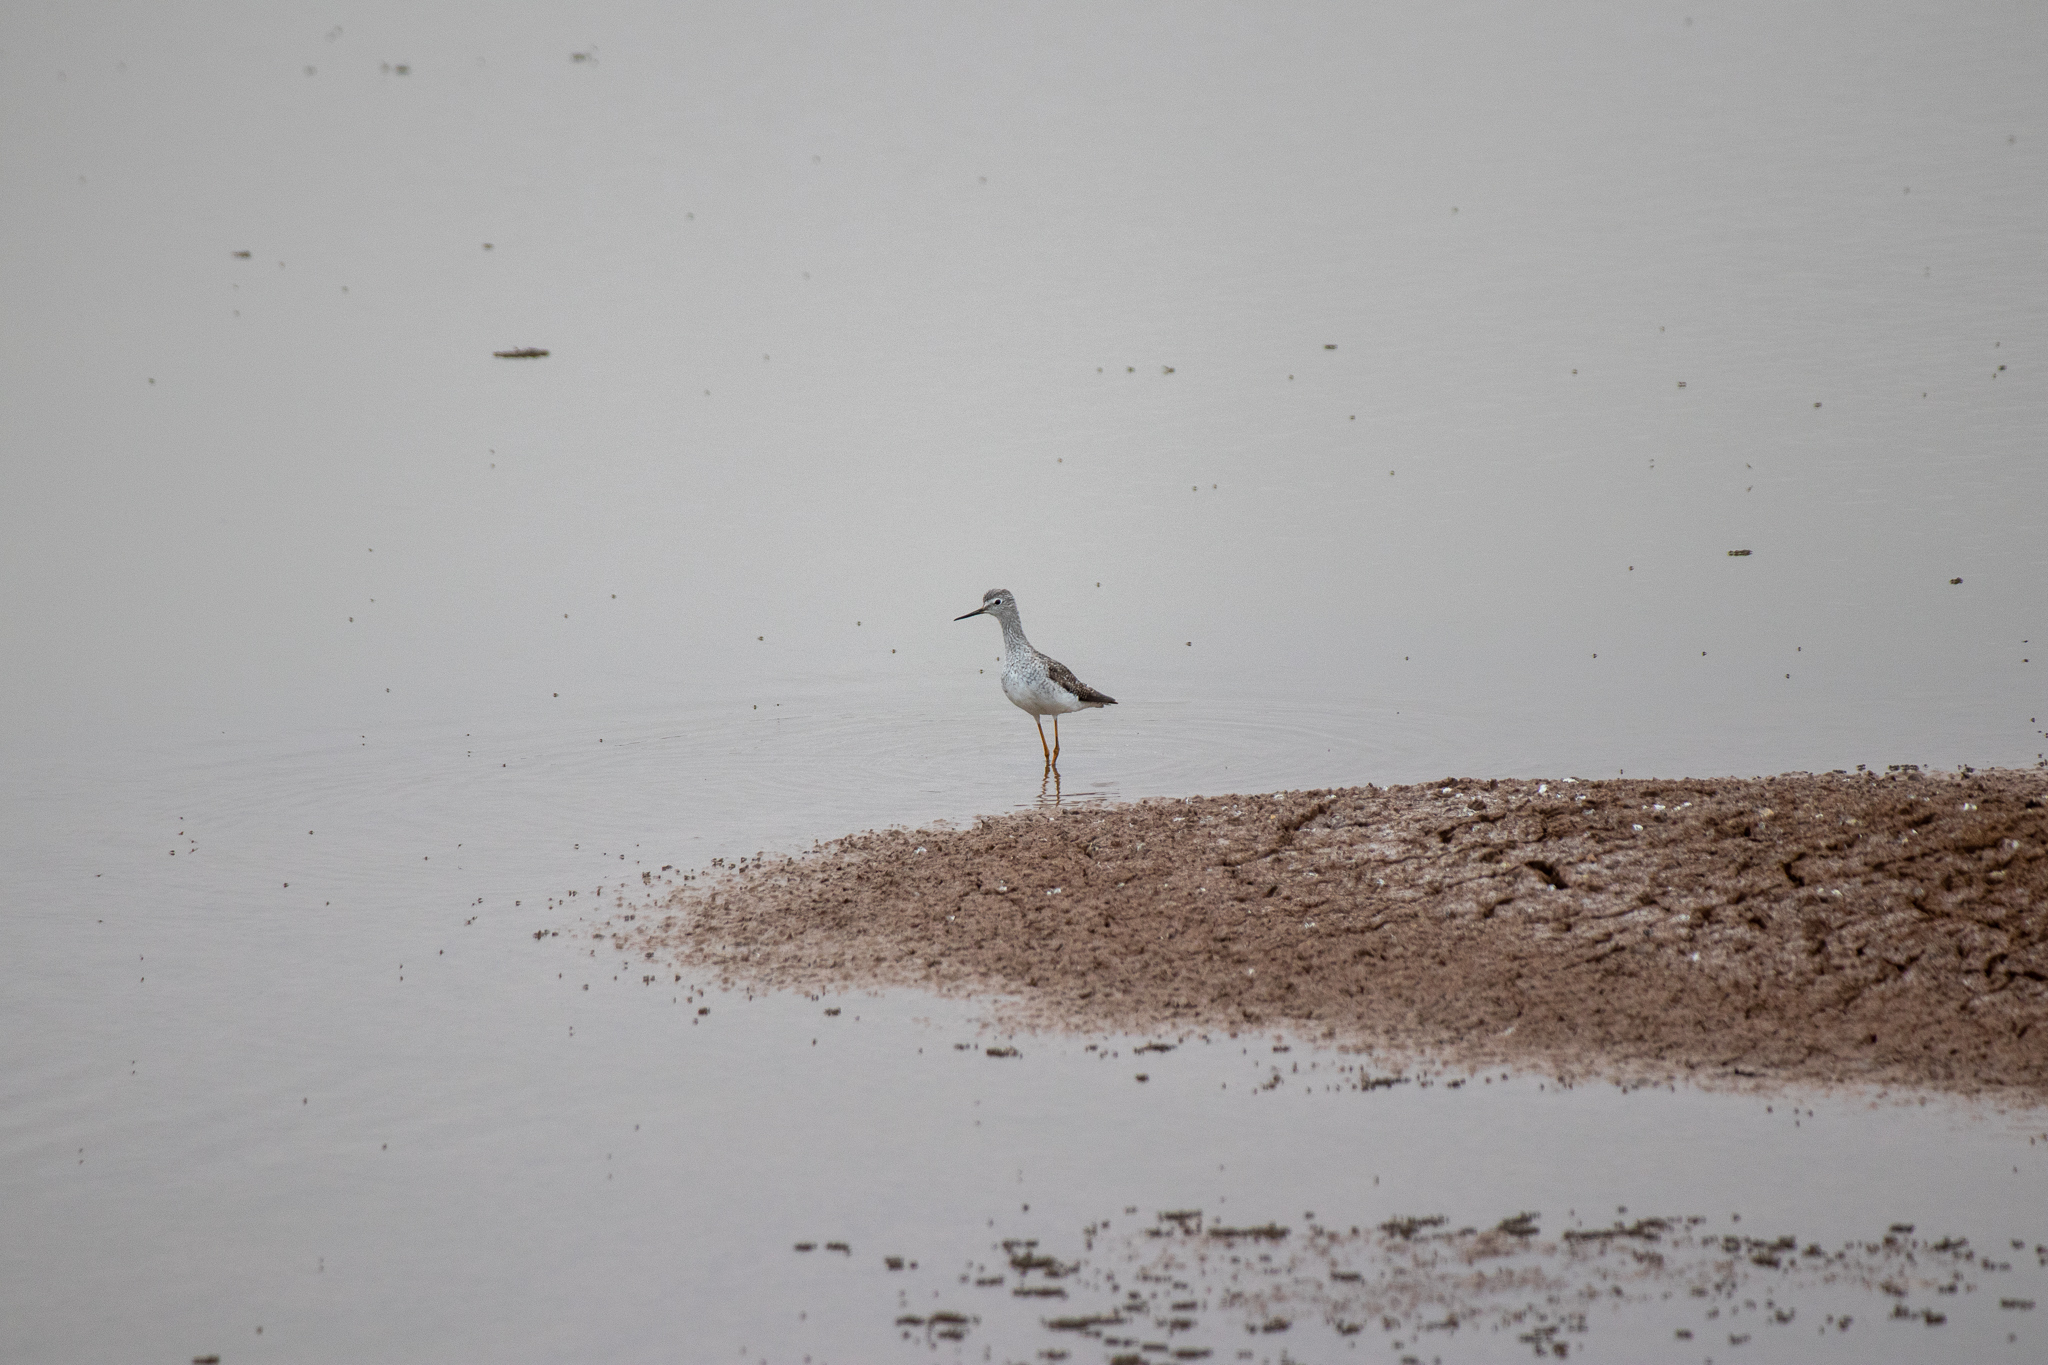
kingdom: Animalia
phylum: Chordata
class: Aves
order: Charadriiformes
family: Scolopacidae
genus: Tringa
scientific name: Tringa melanoleuca
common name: Greater yellowlegs
